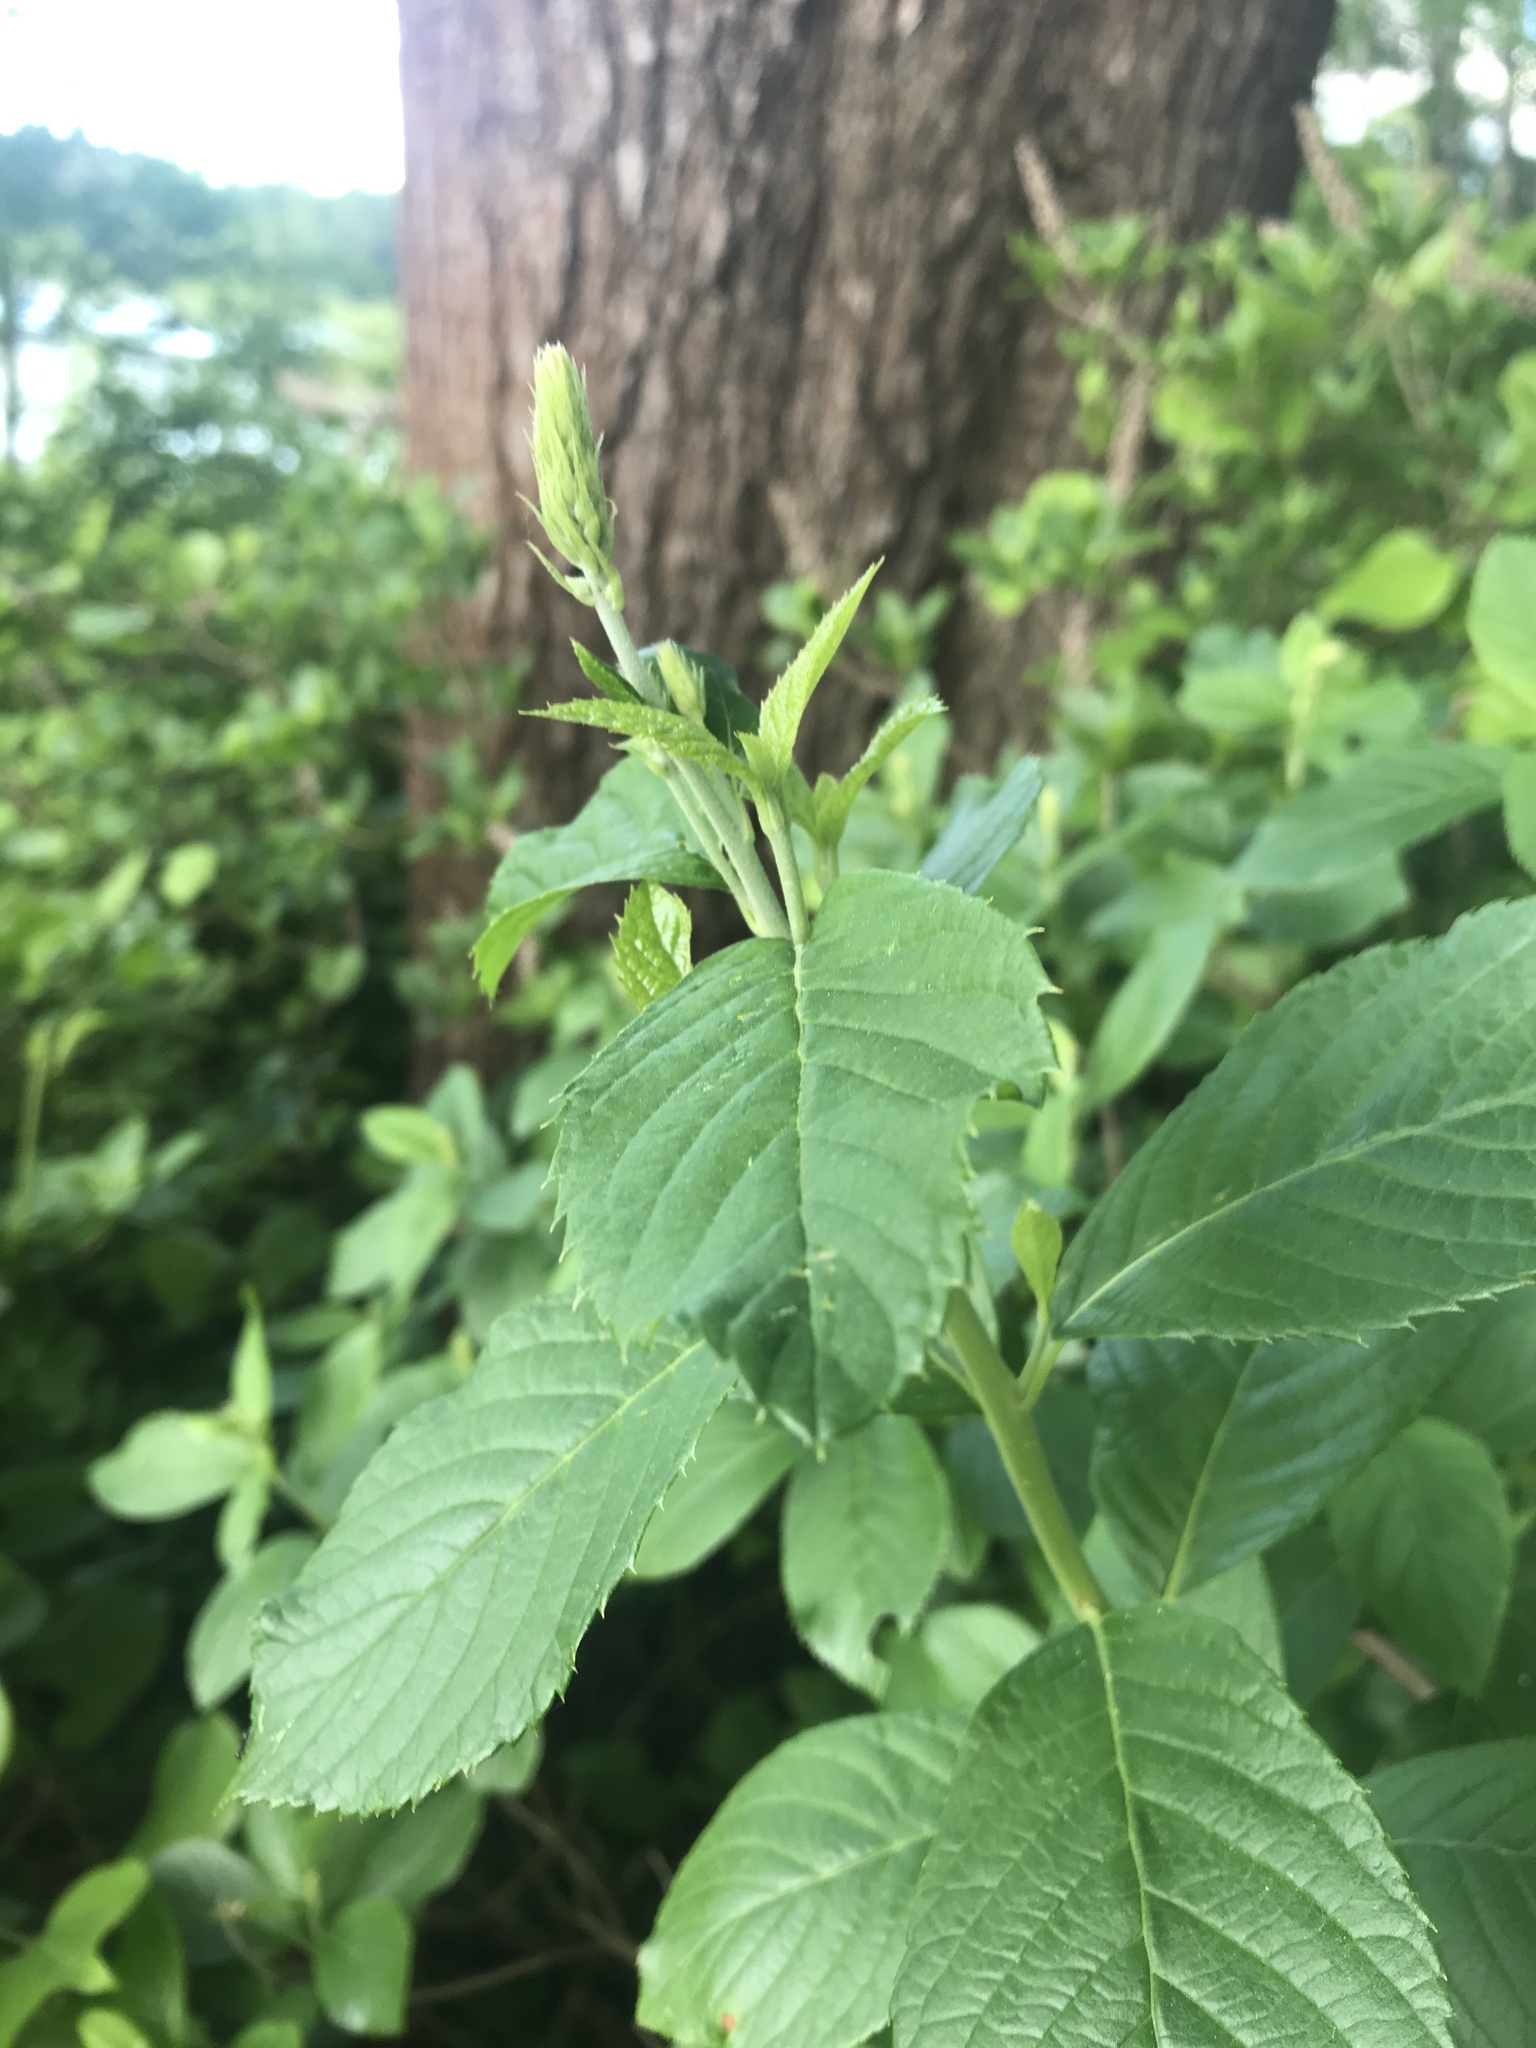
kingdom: Plantae
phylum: Tracheophyta
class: Magnoliopsida
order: Ericales
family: Clethraceae
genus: Clethra
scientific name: Clethra alnifolia
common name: Sweet pepperbush
